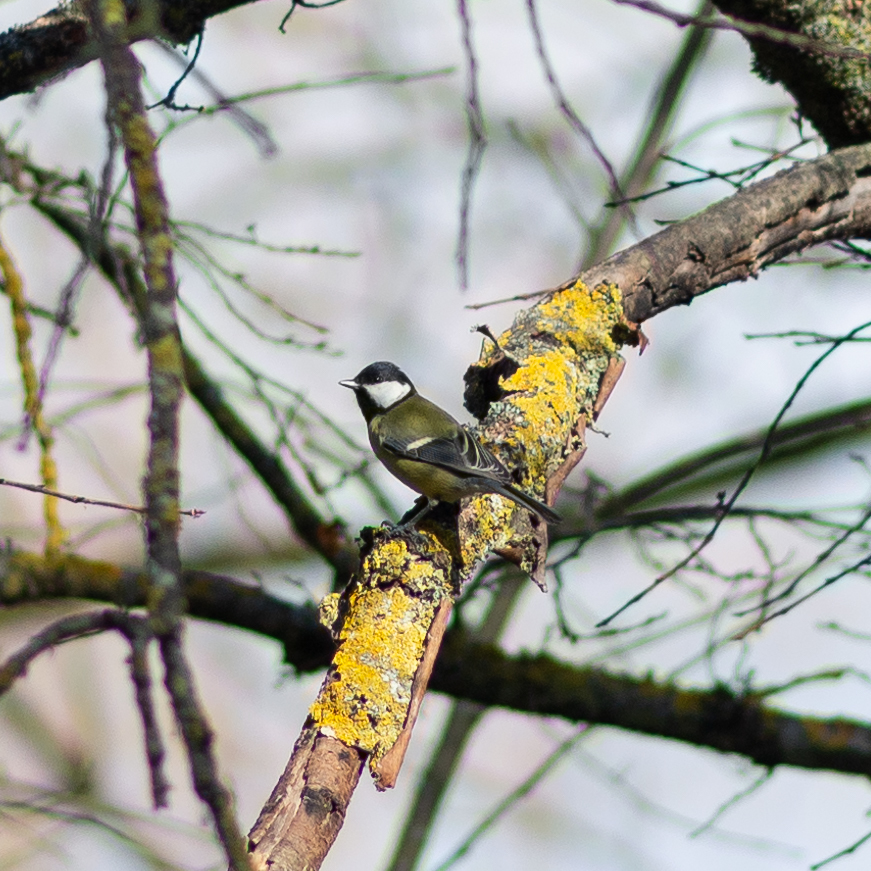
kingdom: Animalia
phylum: Chordata
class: Aves
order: Passeriformes
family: Paridae
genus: Parus
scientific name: Parus major
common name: Great tit
